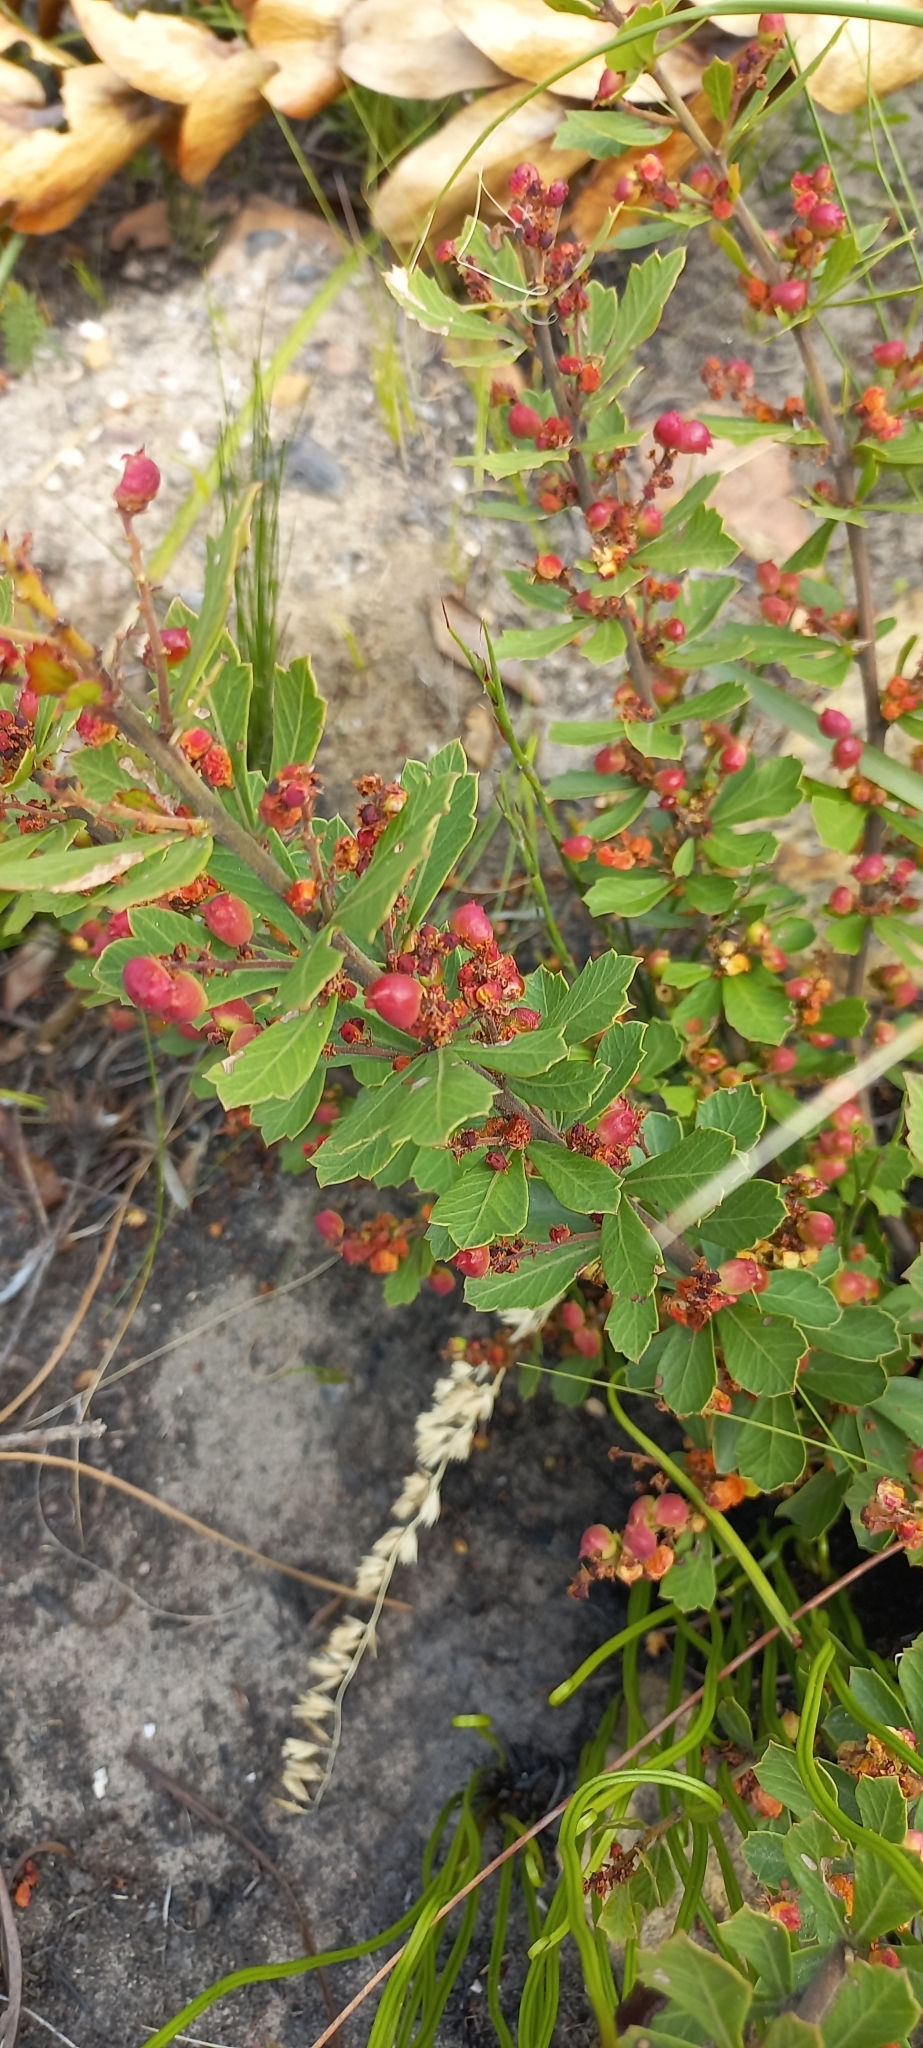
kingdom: Plantae
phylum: Tracheophyta
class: Magnoliopsida
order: Sapindales
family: Anacardiaceae
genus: Searsia
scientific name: Searsia cuneifolia
